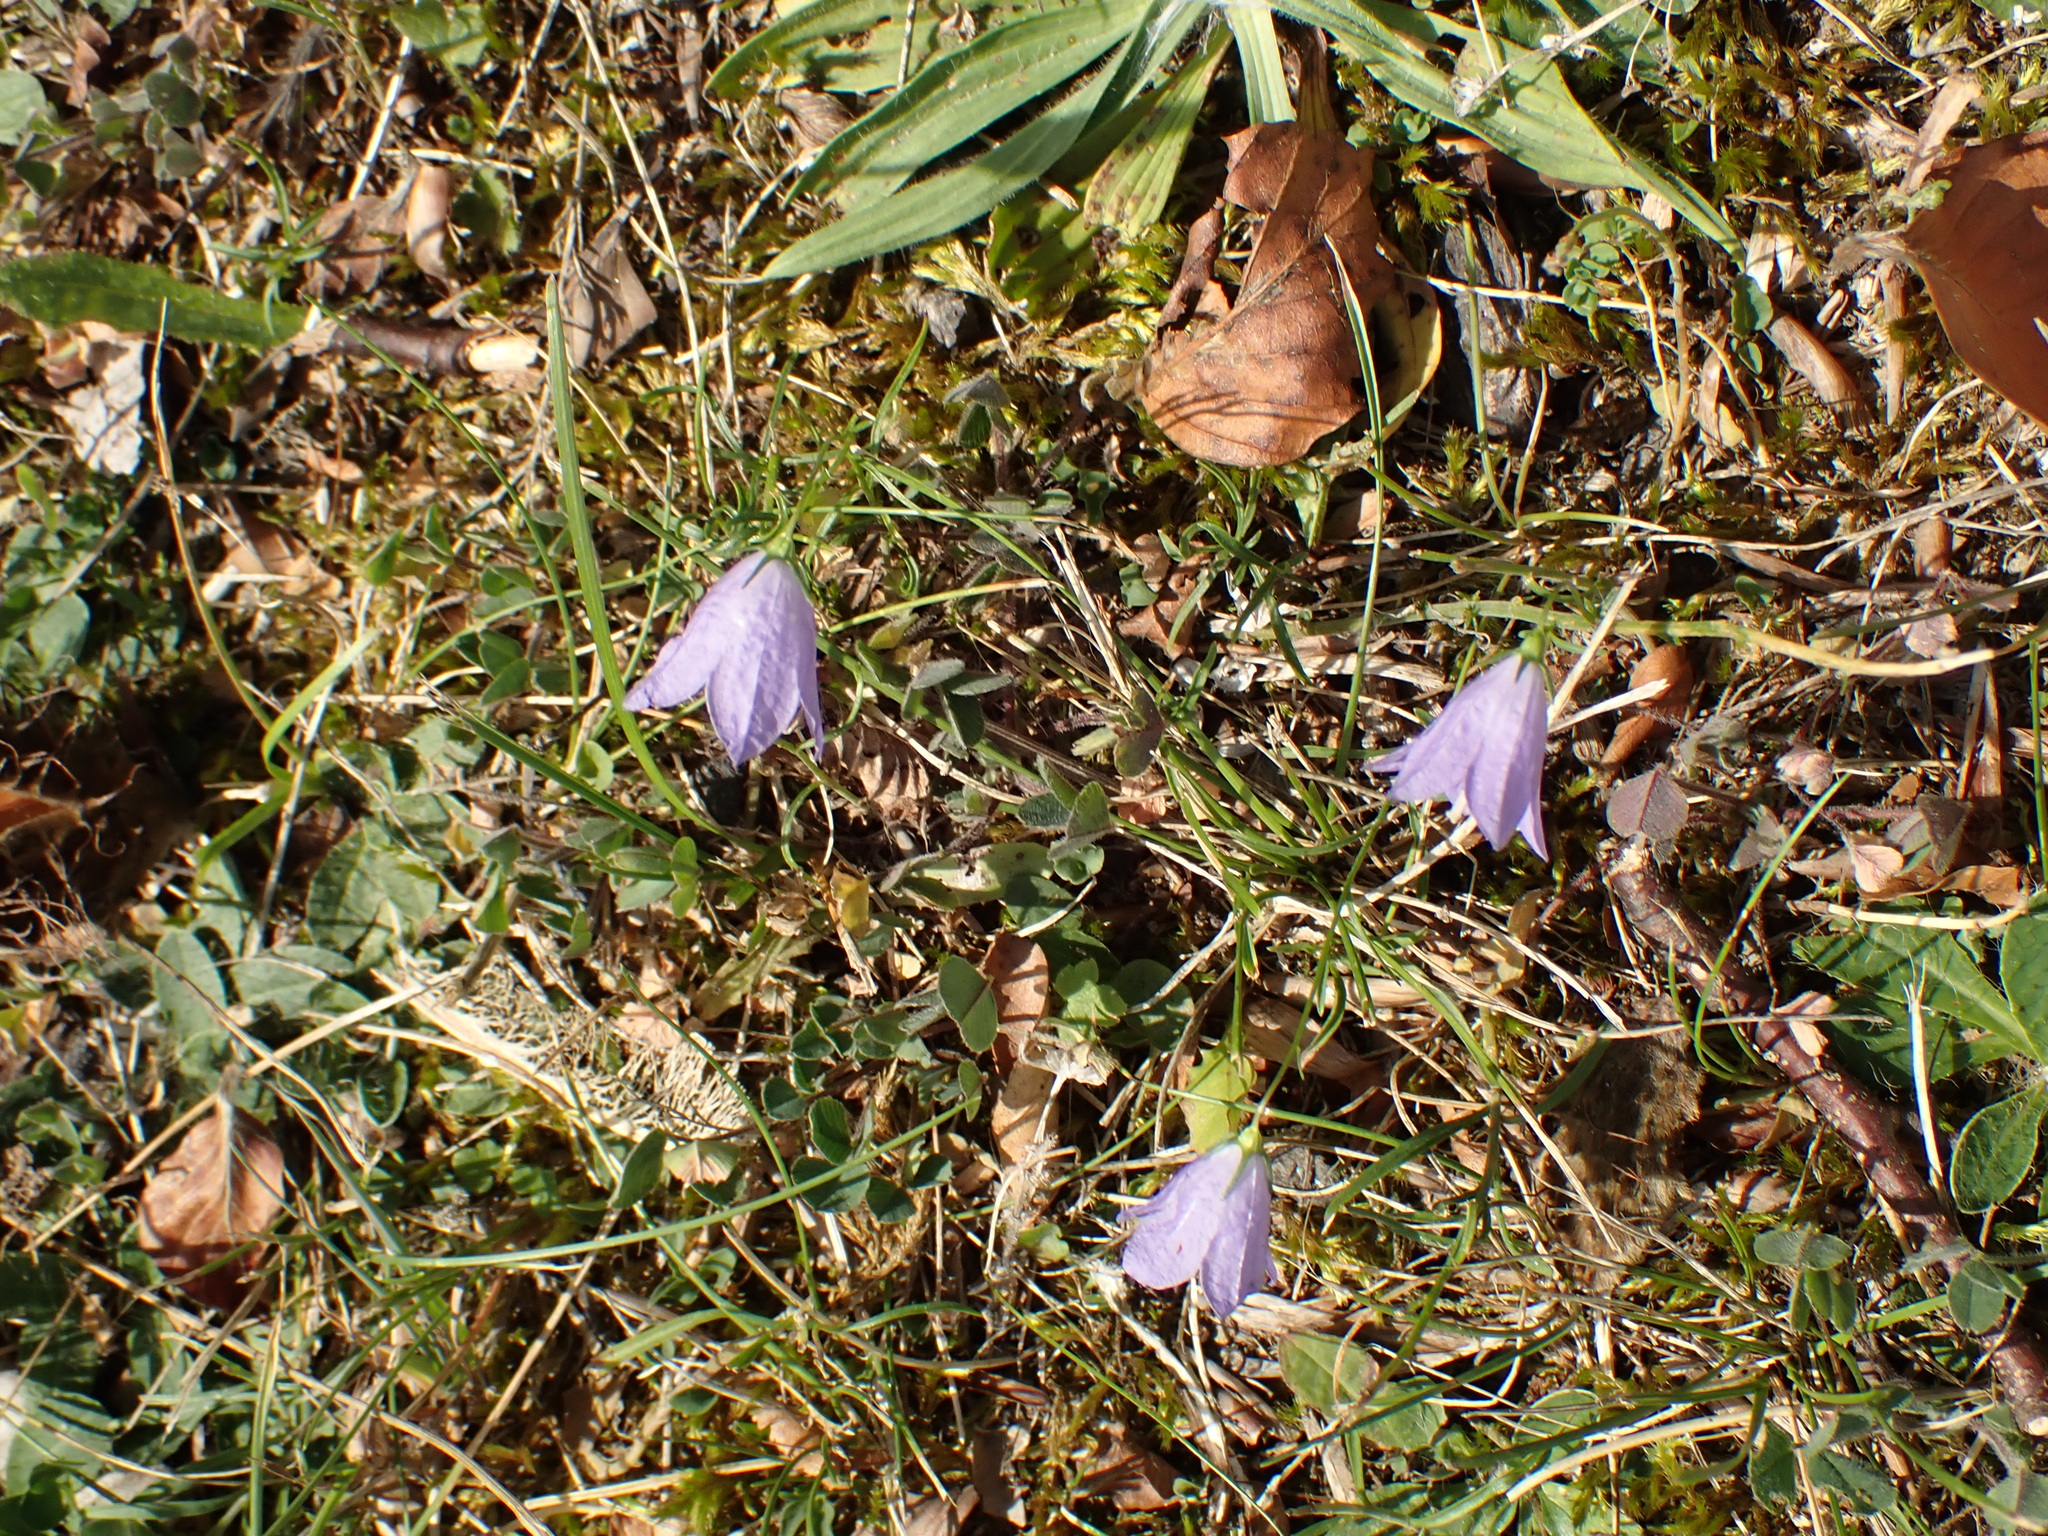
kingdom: Plantae
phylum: Tracheophyta
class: Magnoliopsida
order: Asterales
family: Campanulaceae
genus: Campanula
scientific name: Campanula rotundifolia
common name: Harebell
